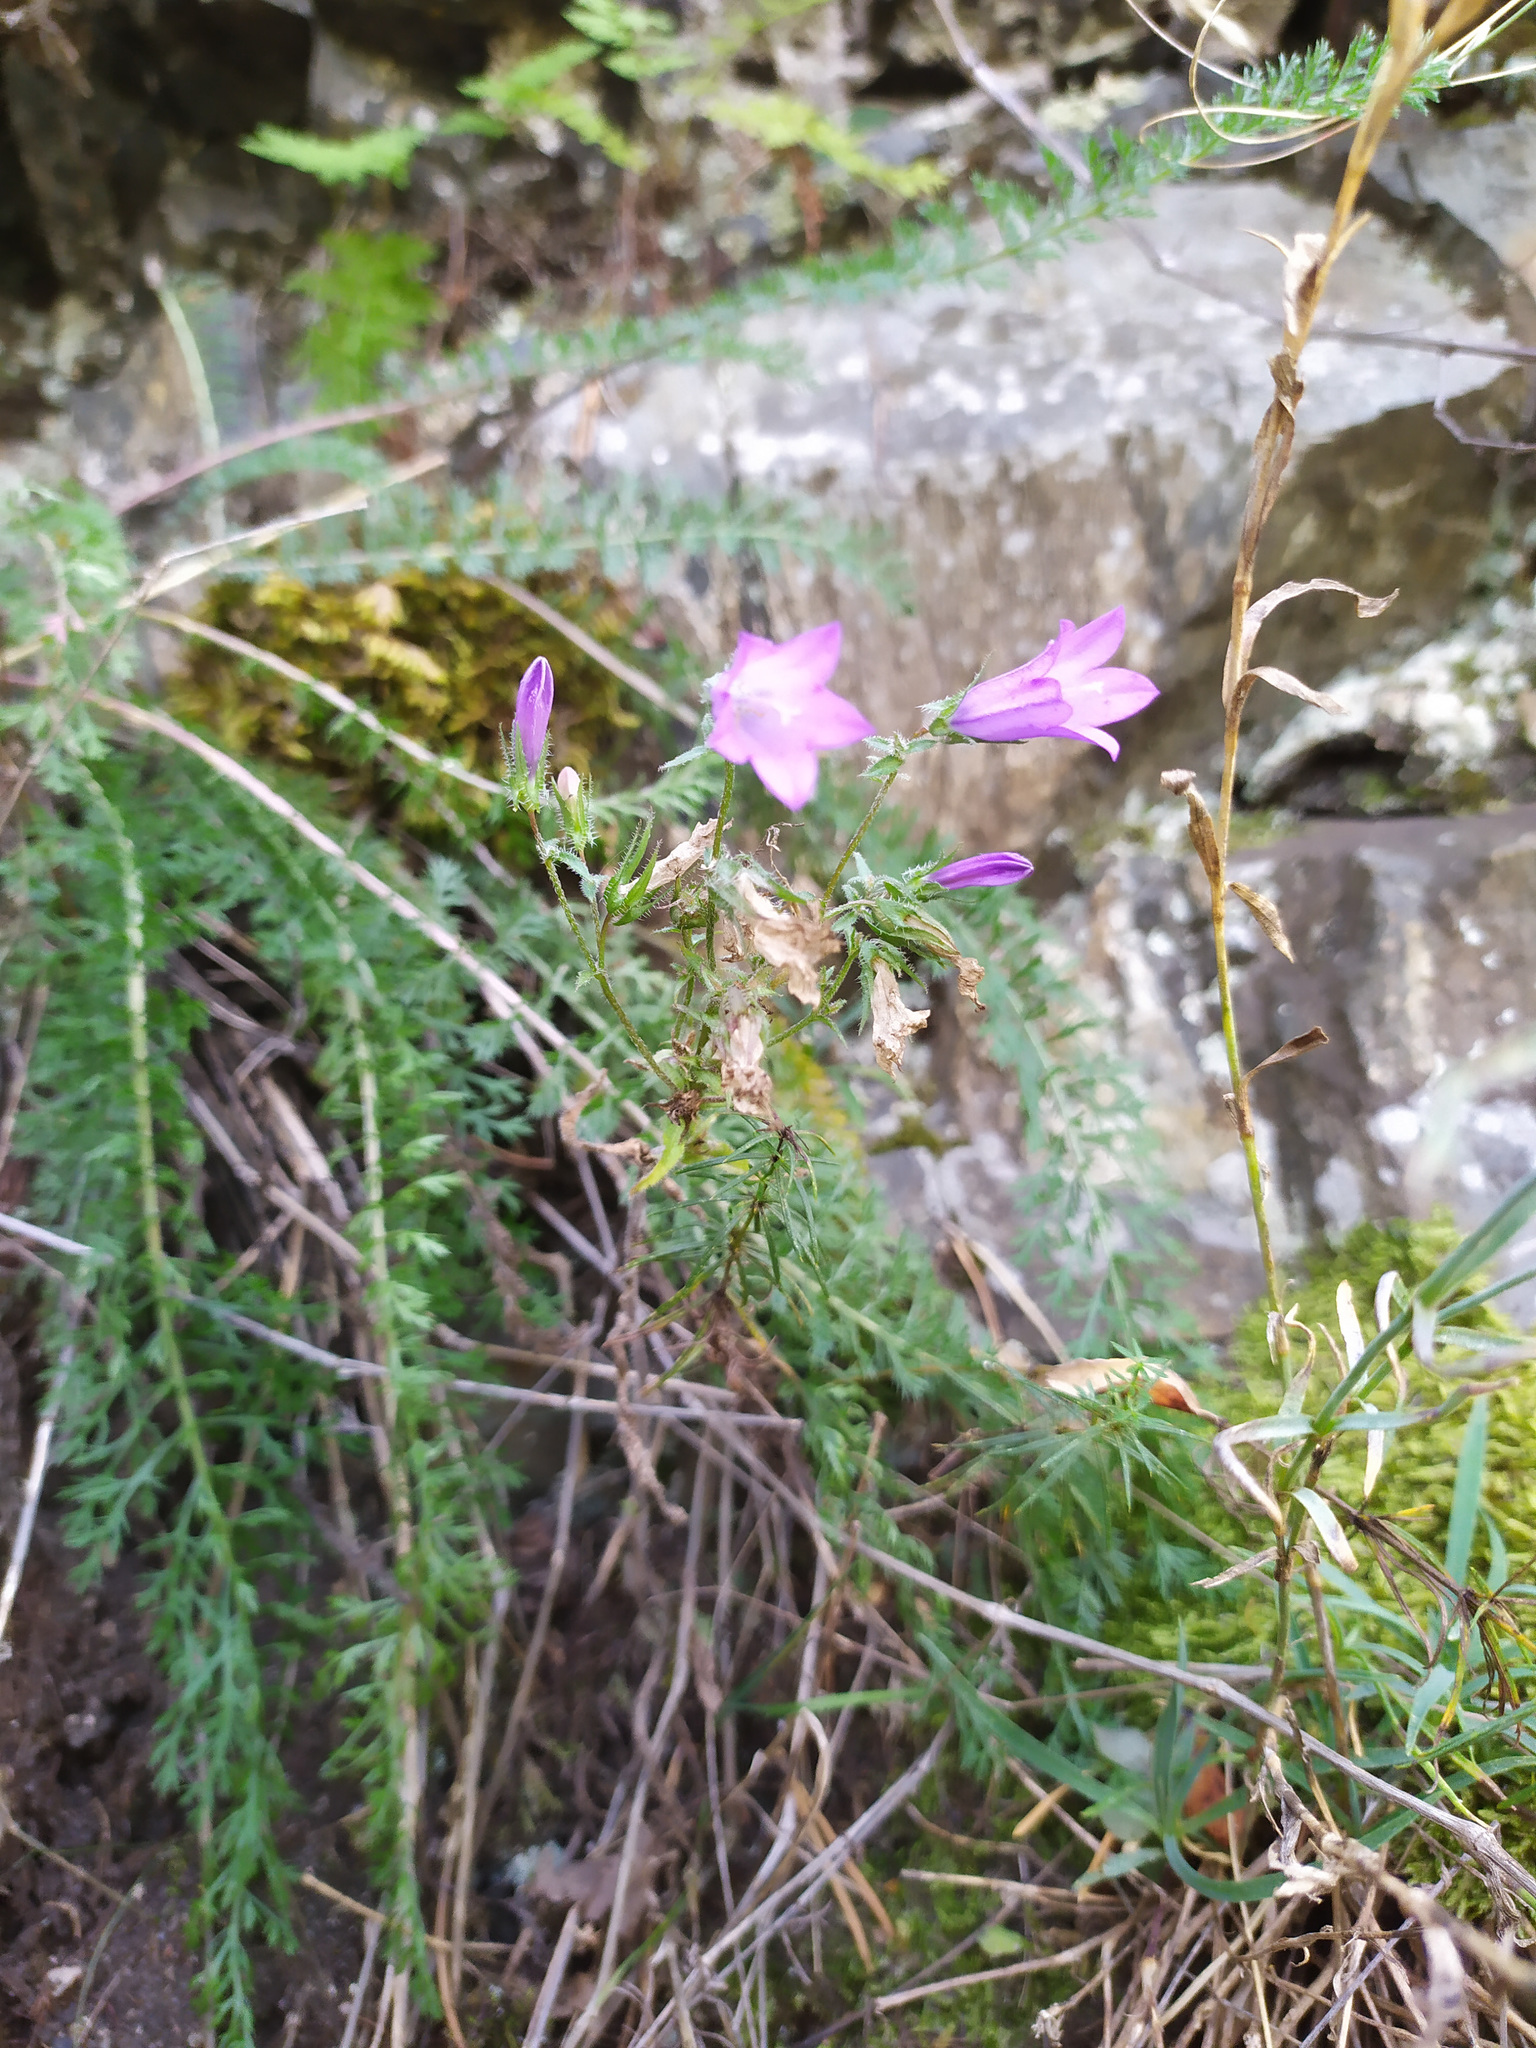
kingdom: Plantae
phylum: Tracheophyta
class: Magnoliopsida
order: Asterales
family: Campanulaceae
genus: Campanula
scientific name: Campanula sibirica
